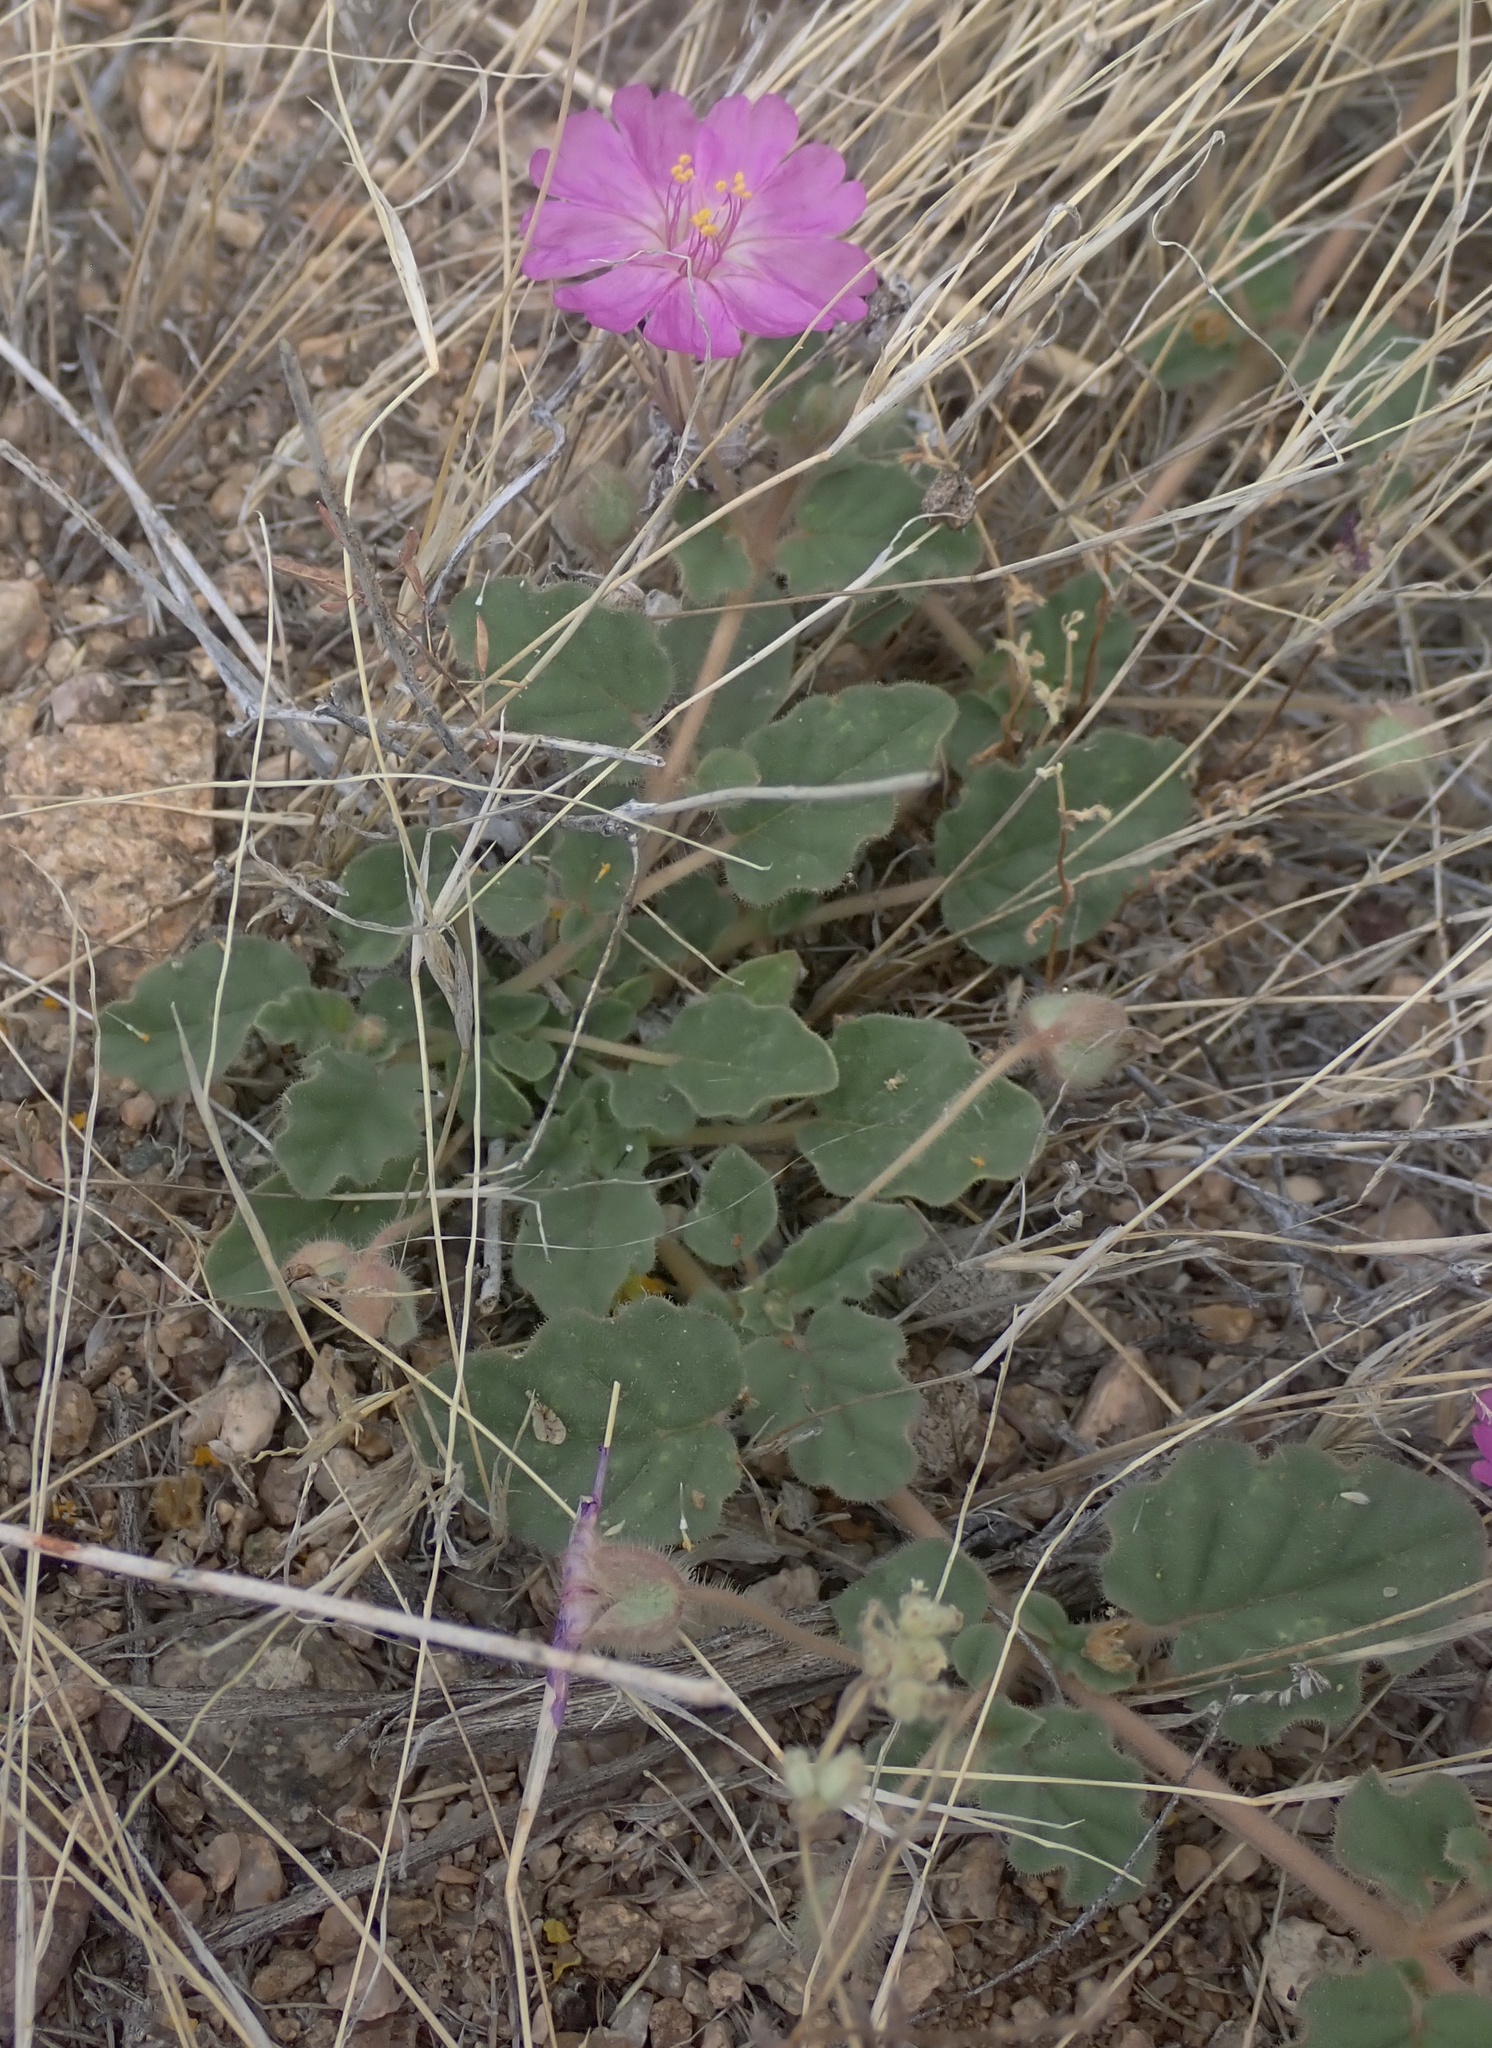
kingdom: Plantae
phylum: Tracheophyta
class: Magnoliopsida
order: Caryophyllales
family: Nyctaginaceae
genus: Allionia
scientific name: Allionia incarnata
